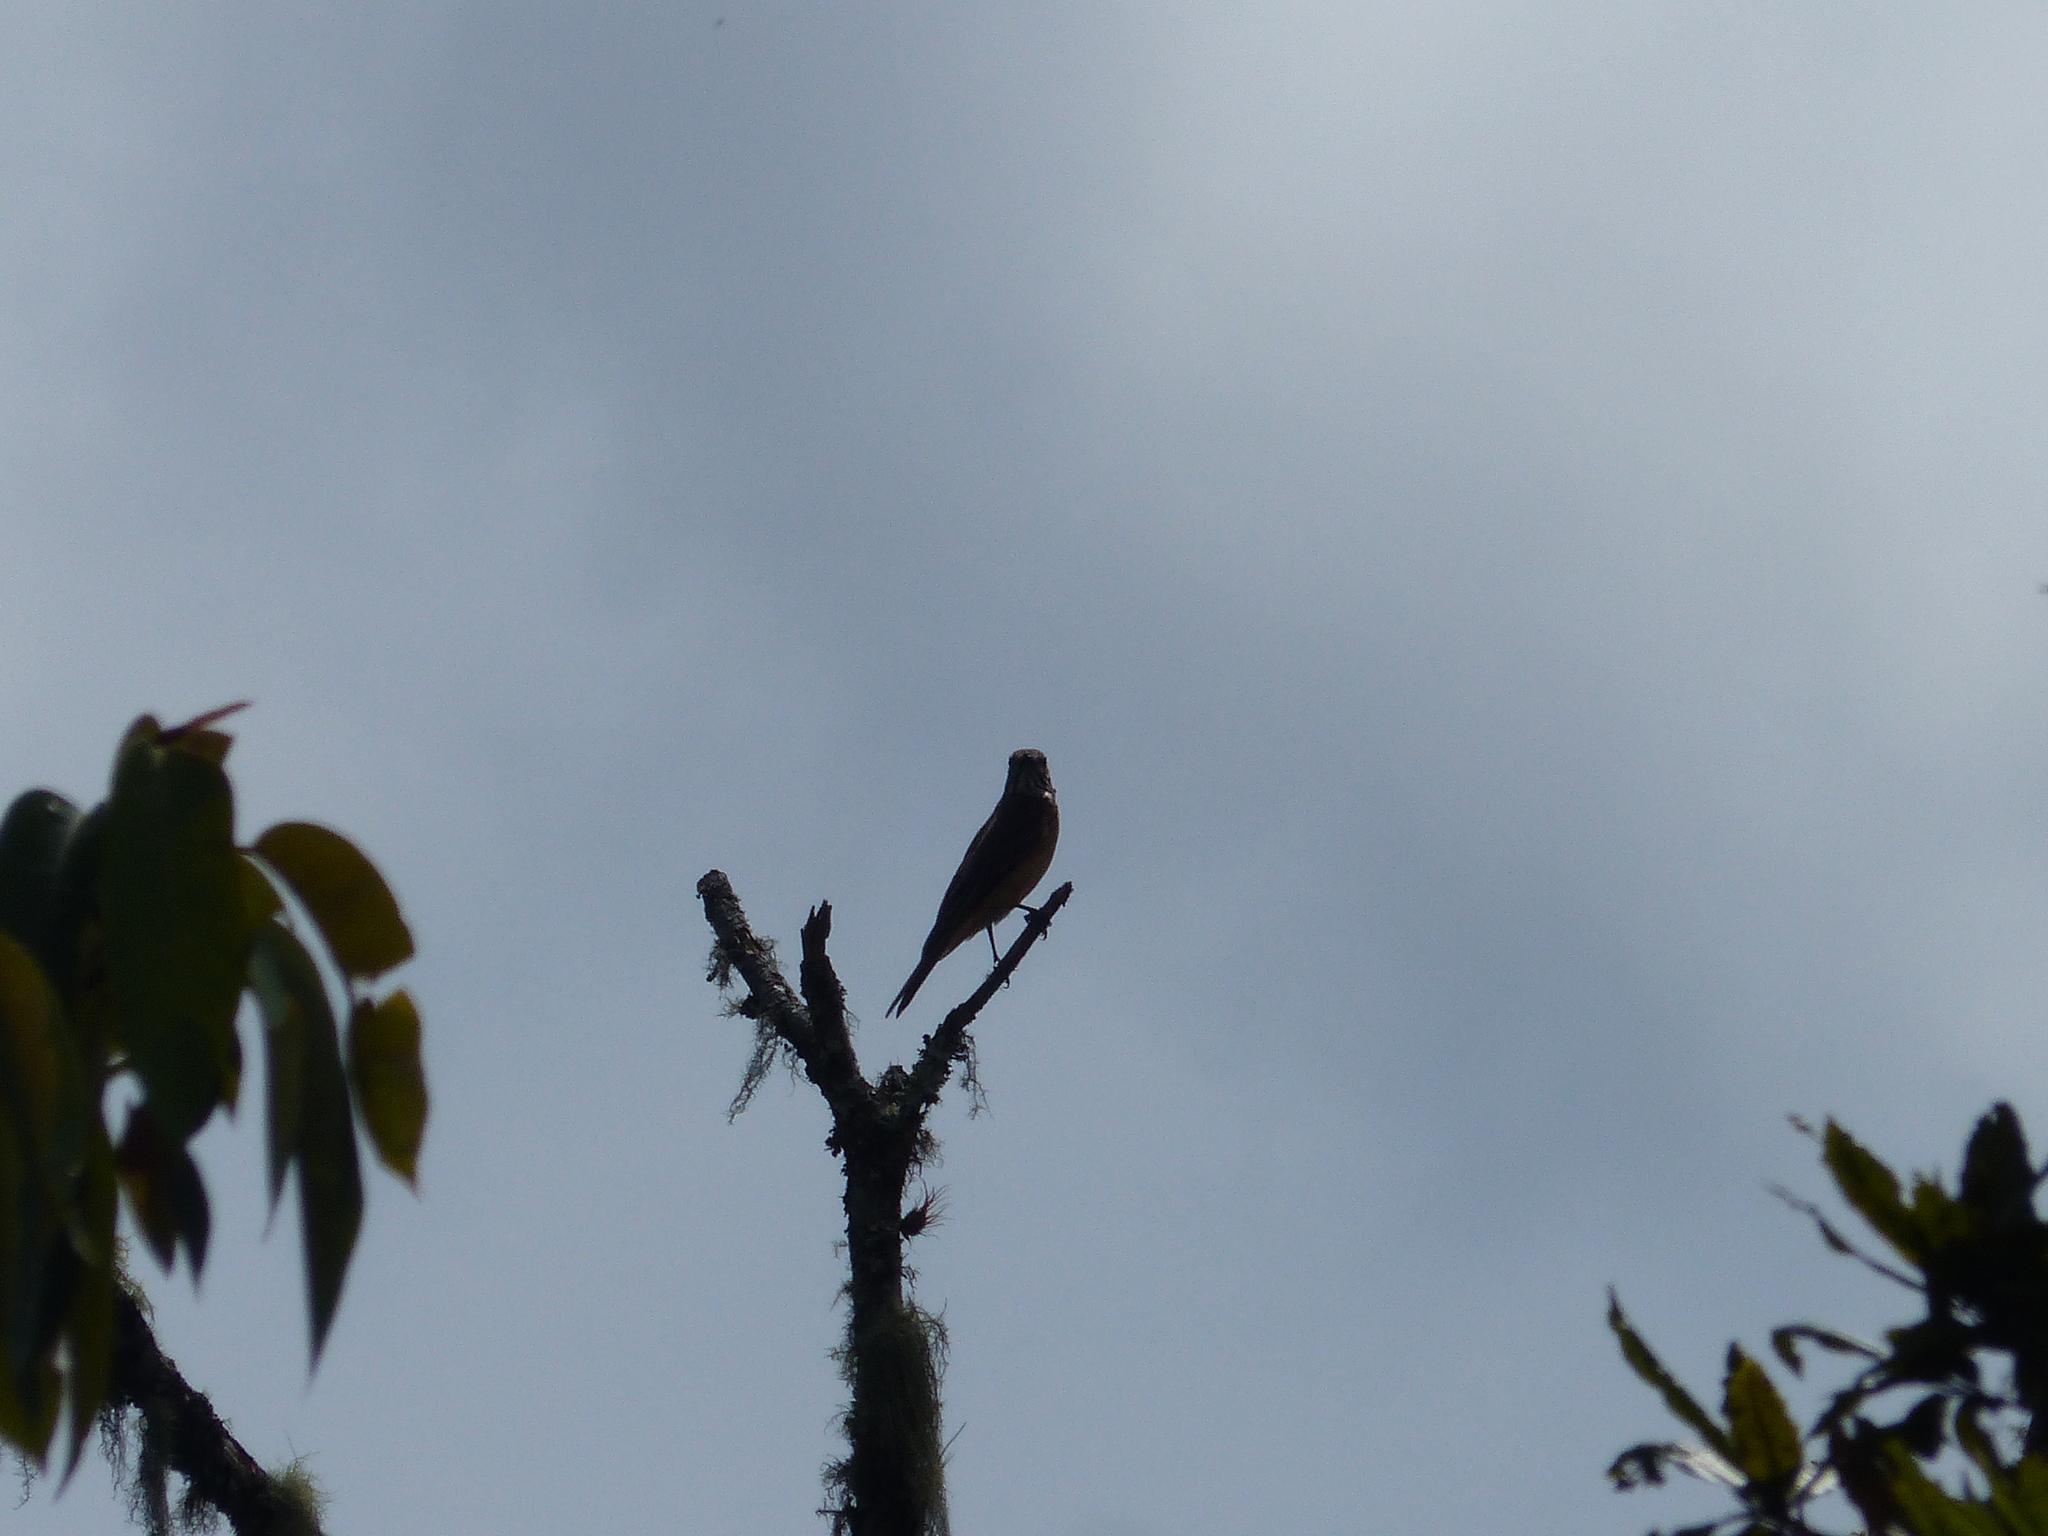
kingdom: Animalia
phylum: Chordata
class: Aves
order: Passeriformes
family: Tyrannidae
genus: Myiotheretes
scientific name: Myiotheretes striaticollis
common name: Streak-throated bush tyrant
